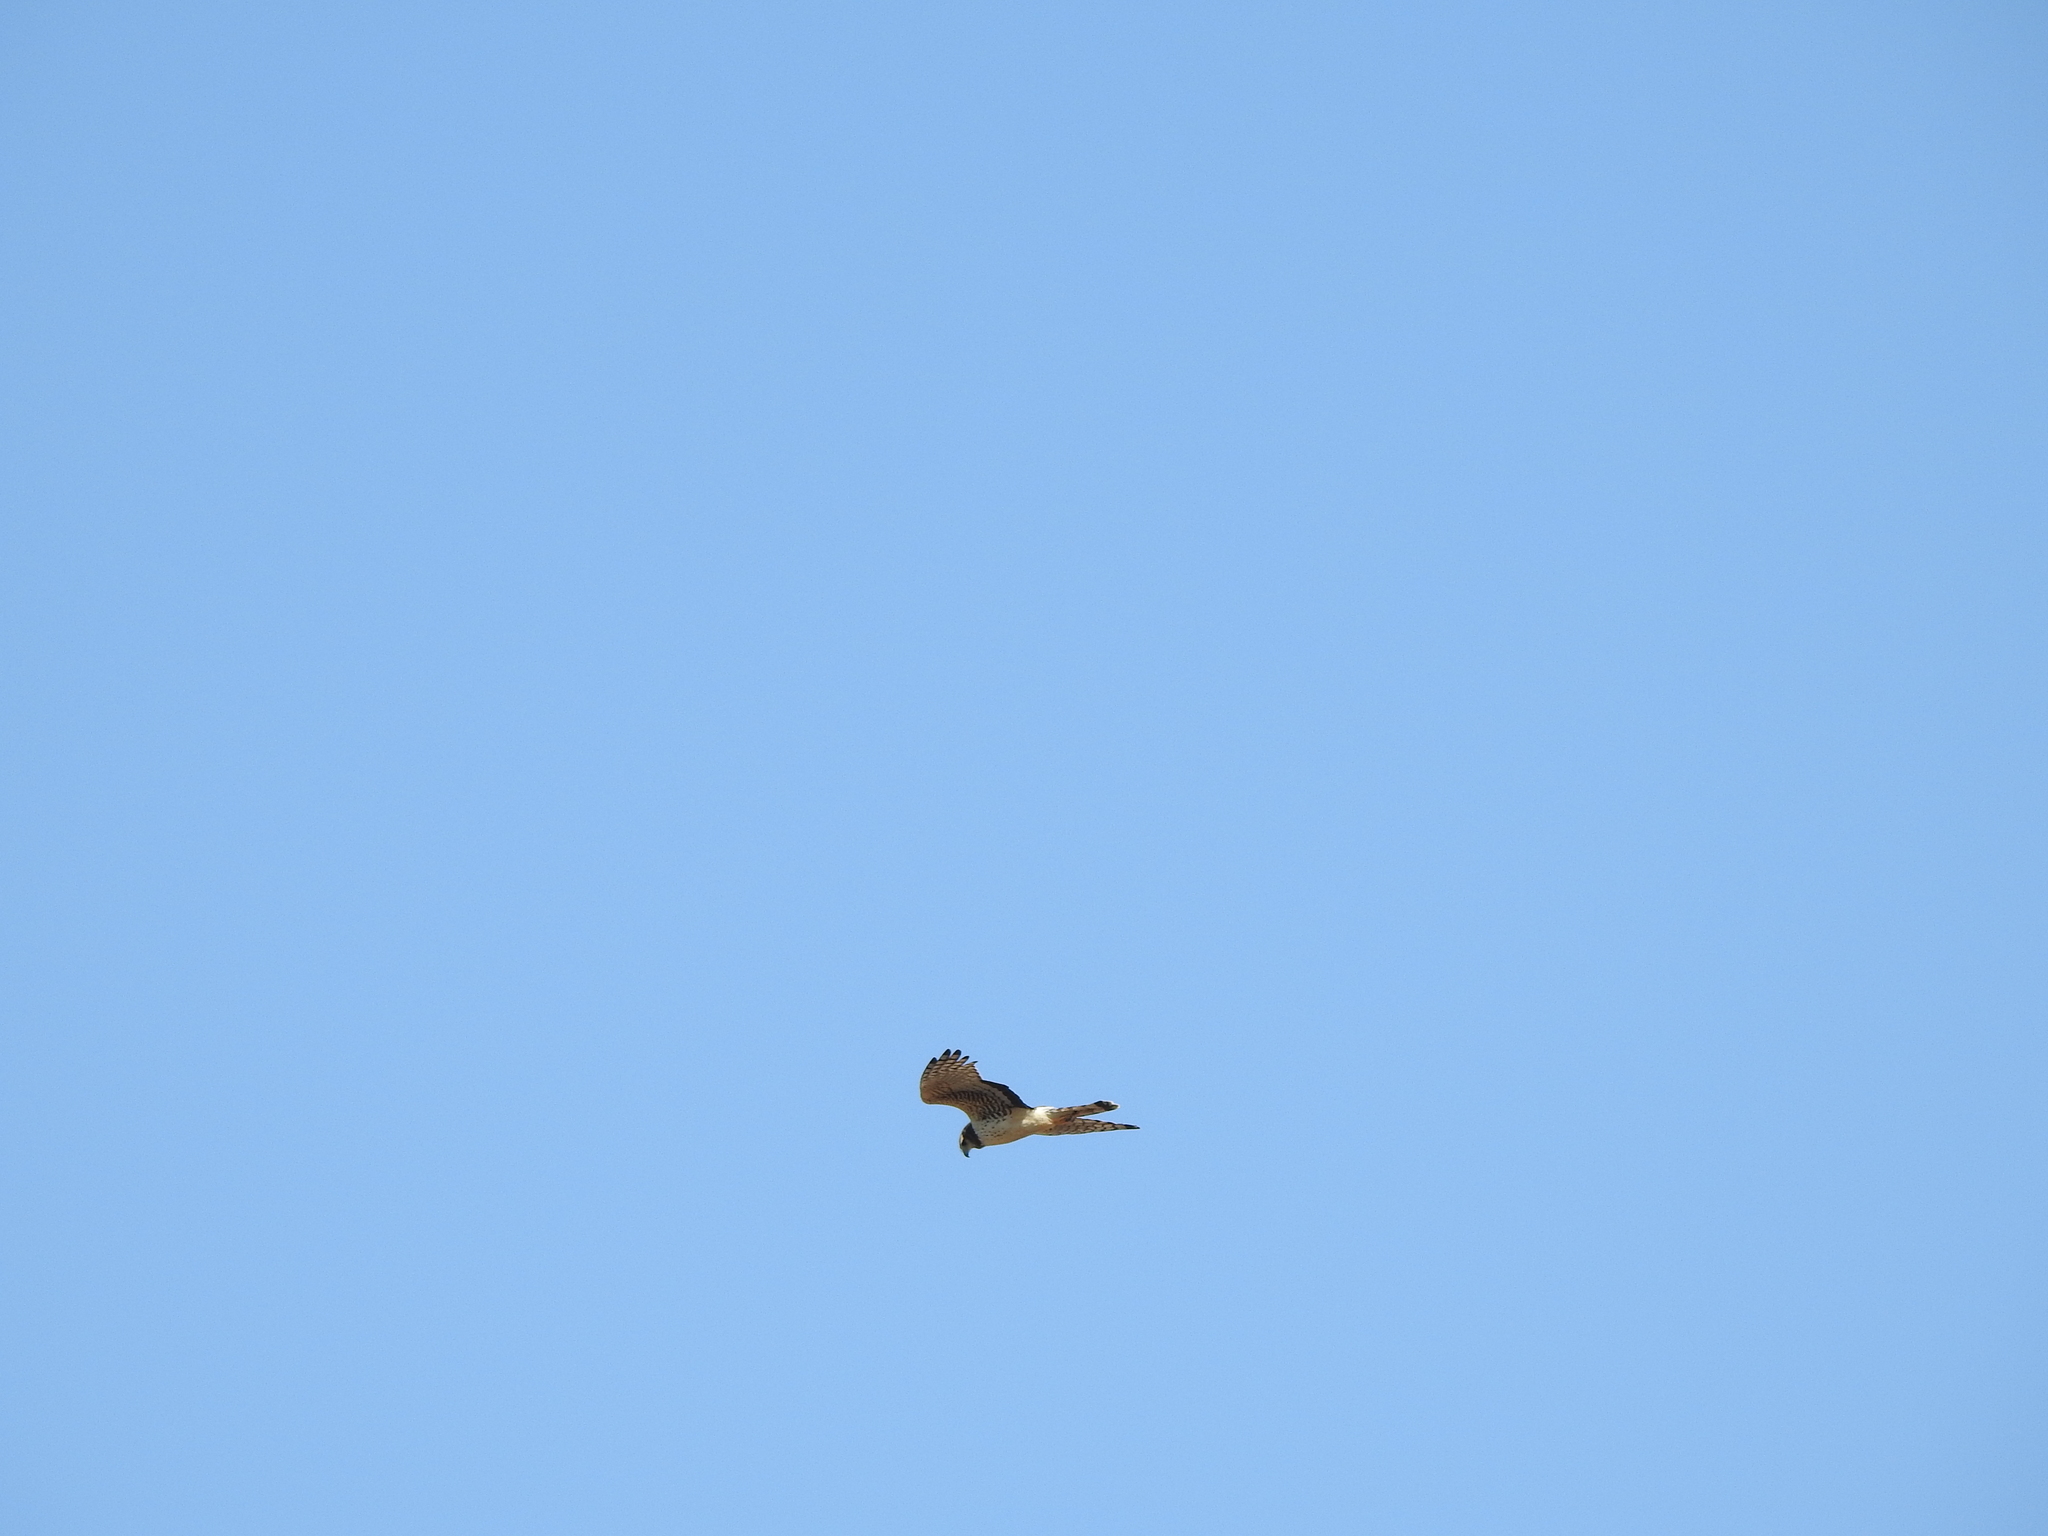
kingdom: Animalia
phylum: Chordata
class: Aves
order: Accipitriformes
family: Accipitridae
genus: Circus
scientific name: Circus buffoni
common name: Long-winged harrier
